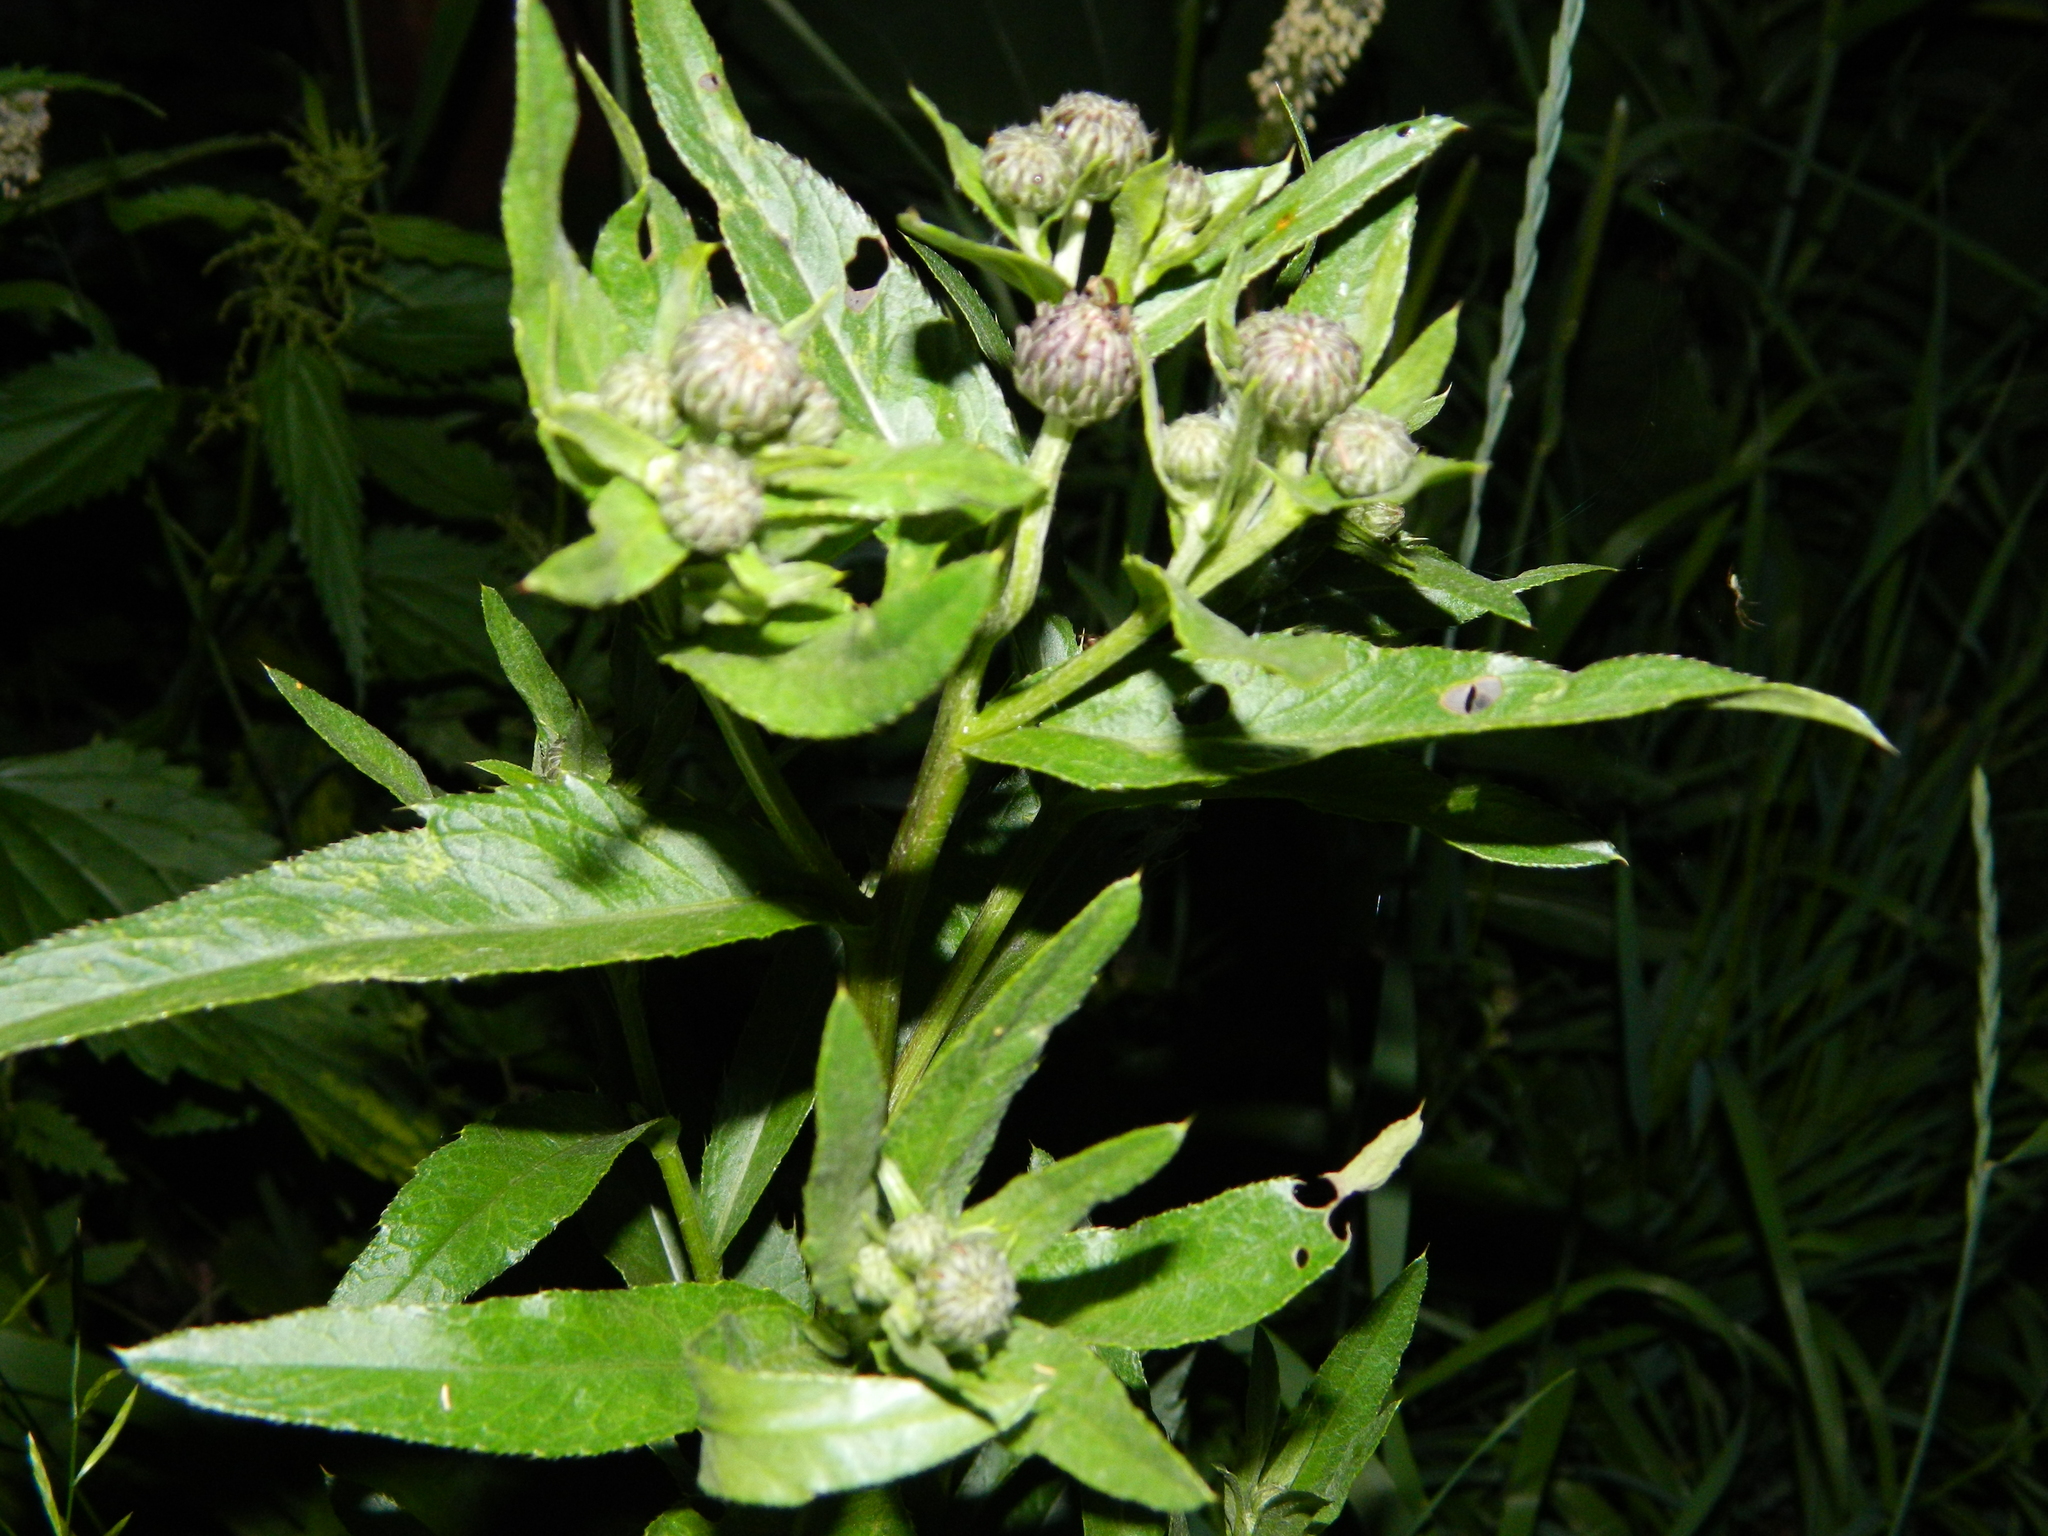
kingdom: Plantae
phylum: Tracheophyta
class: Magnoliopsida
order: Asterales
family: Asteraceae
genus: Cirsium
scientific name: Cirsium arvense
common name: Creeping thistle
